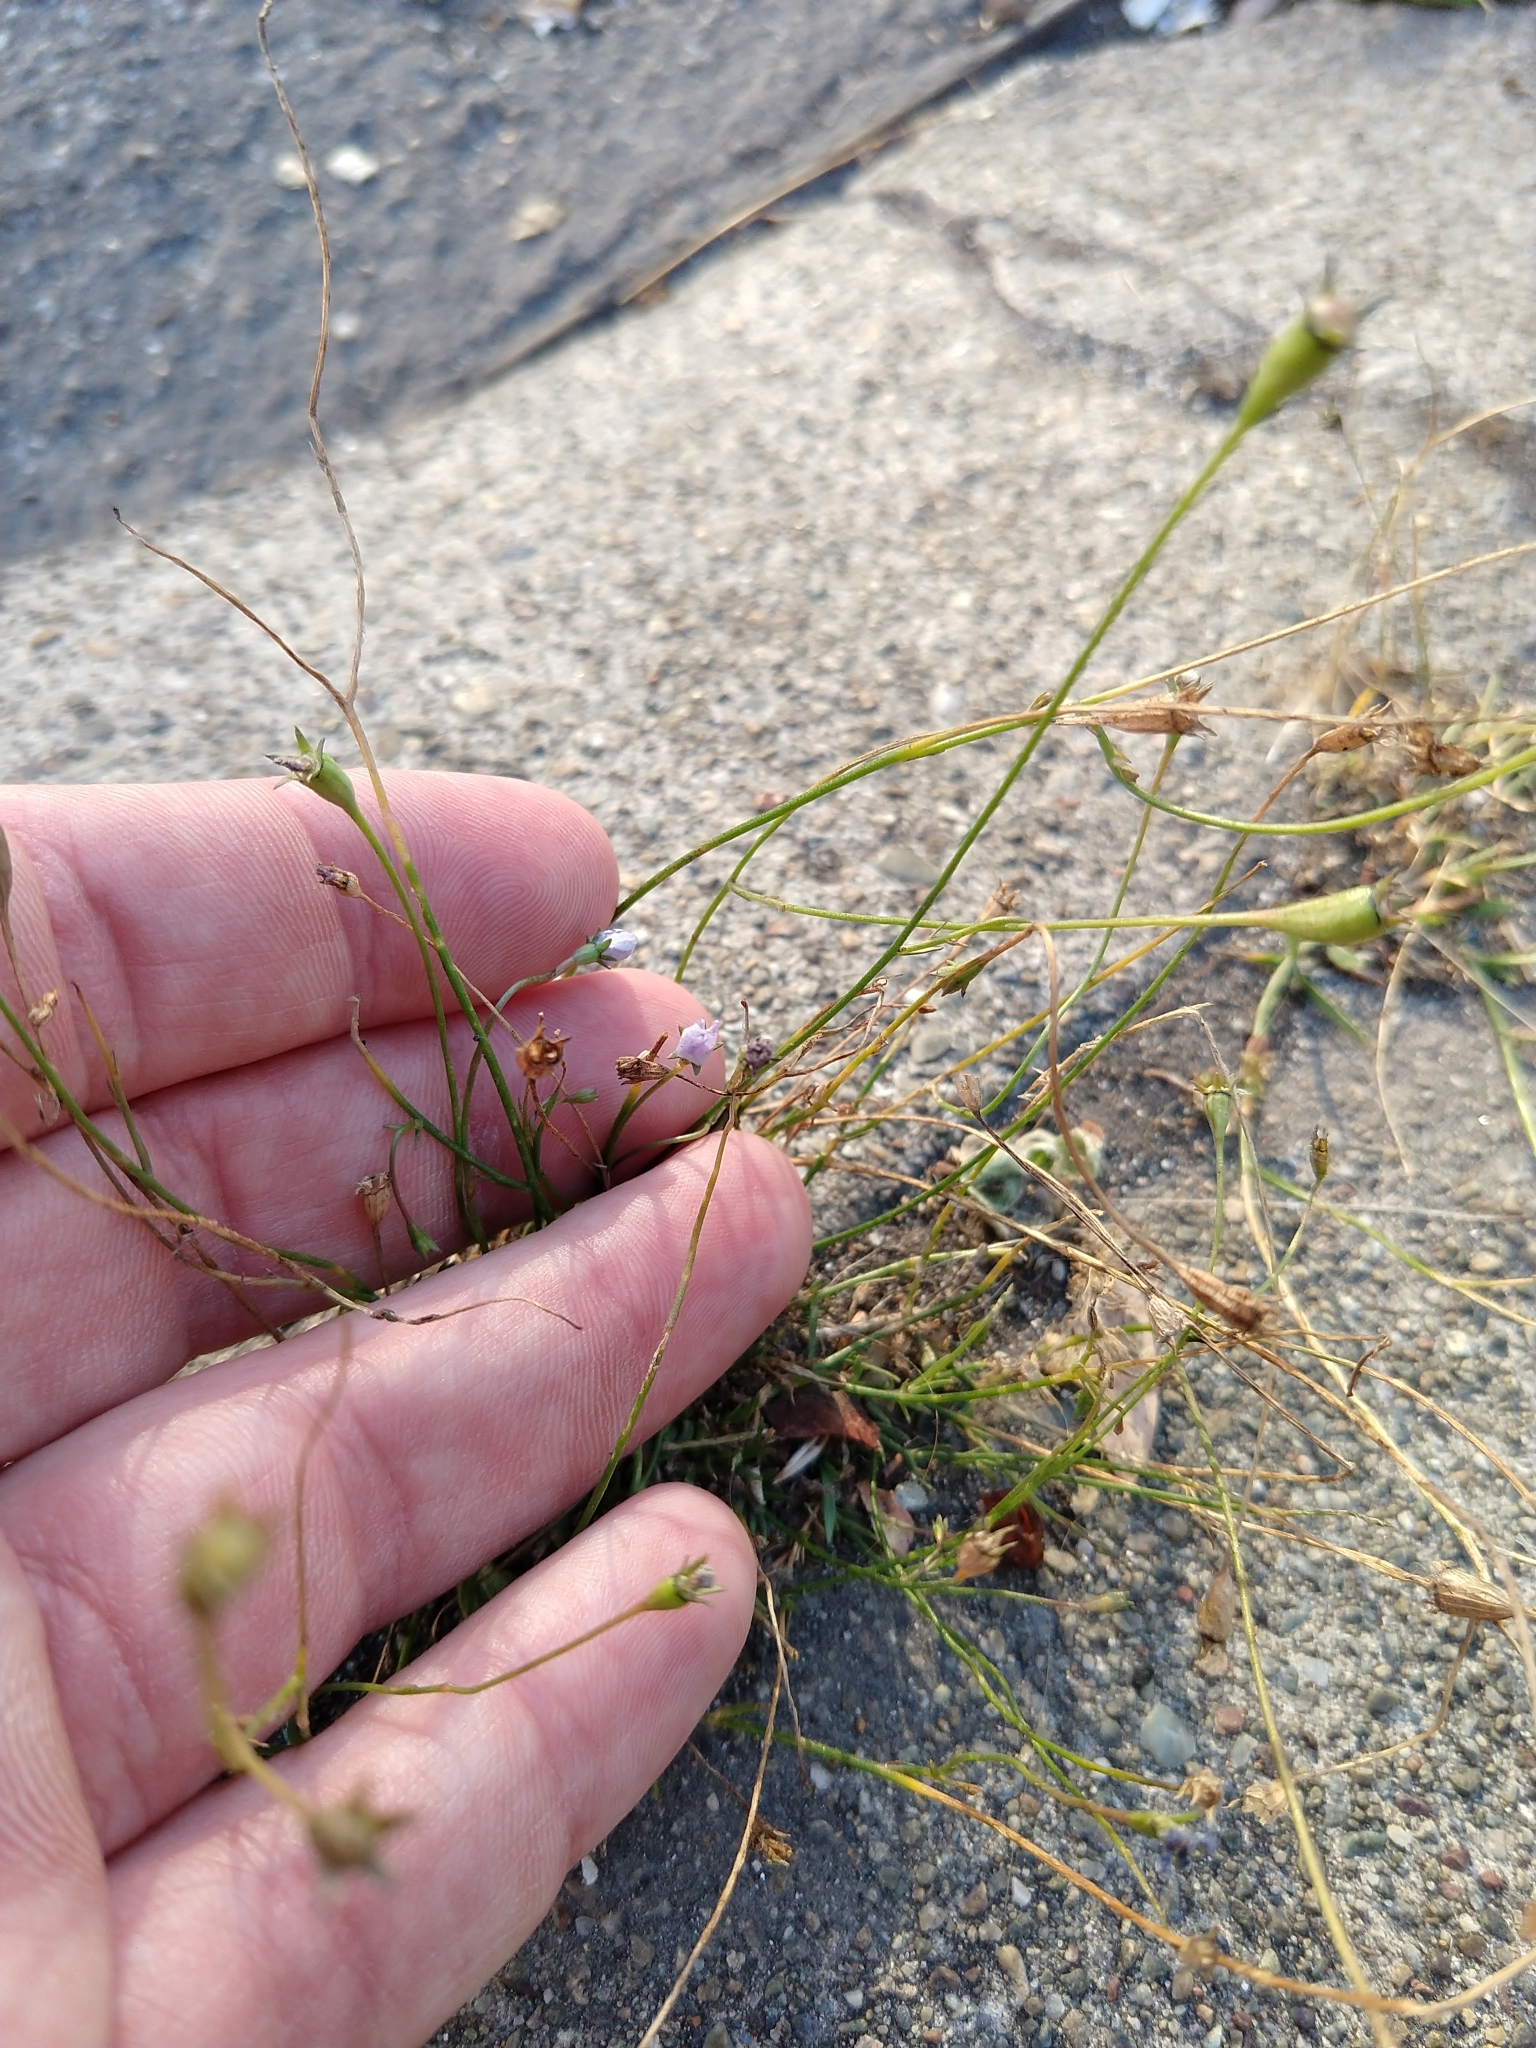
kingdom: Plantae
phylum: Tracheophyta
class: Magnoliopsida
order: Asterales
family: Campanulaceae
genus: Wahlenbergia
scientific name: Wahlenbergia marginata
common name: Southern rockbell
